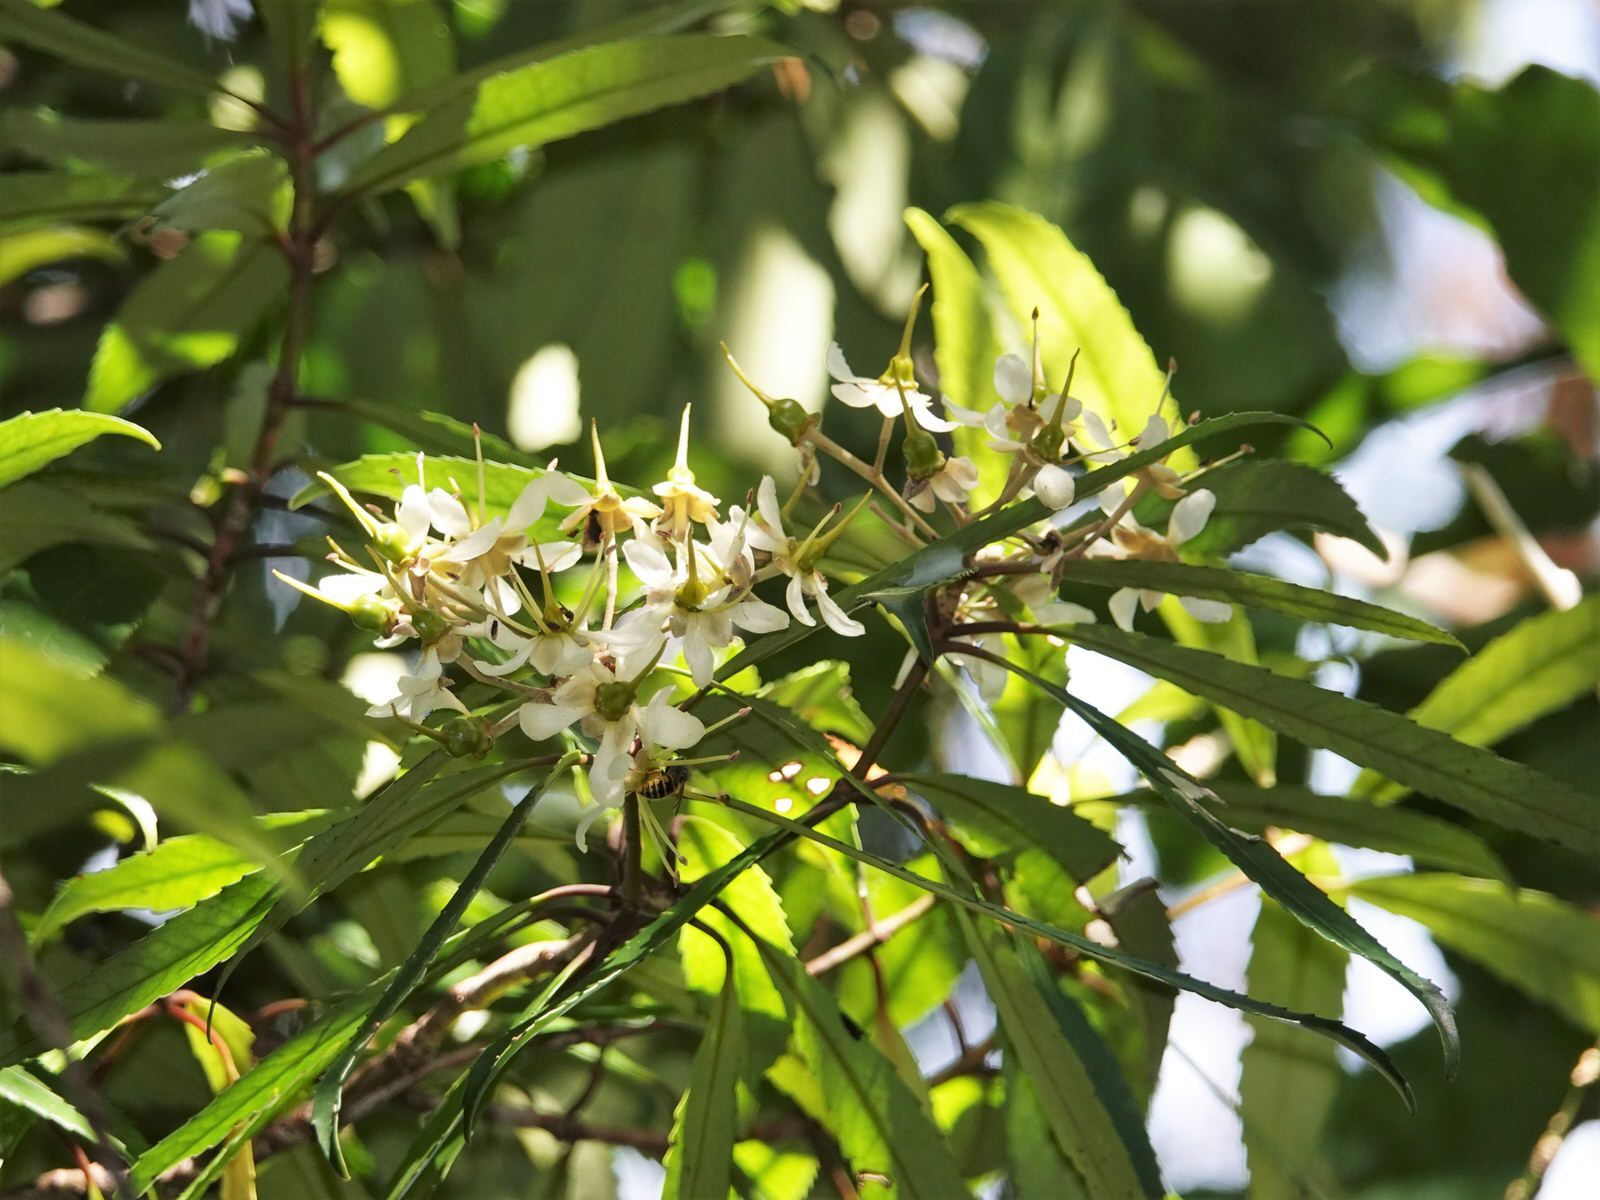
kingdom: Animalia
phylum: Arthropoda
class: Insecta
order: Hymenoptera
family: Vespidae
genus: Vespula
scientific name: Vespula vulgaris
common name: Common wasp
